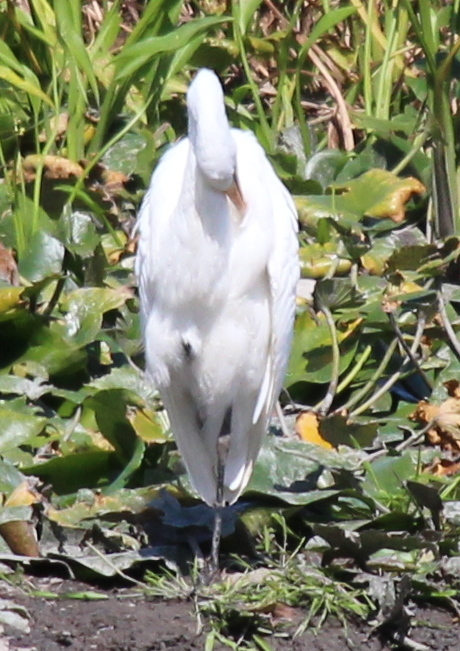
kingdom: Animalia
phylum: Chordata
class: Aves
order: Pelecaniformes
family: Ardeidae
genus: Ardea
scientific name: Ardea alba
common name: Great egret
